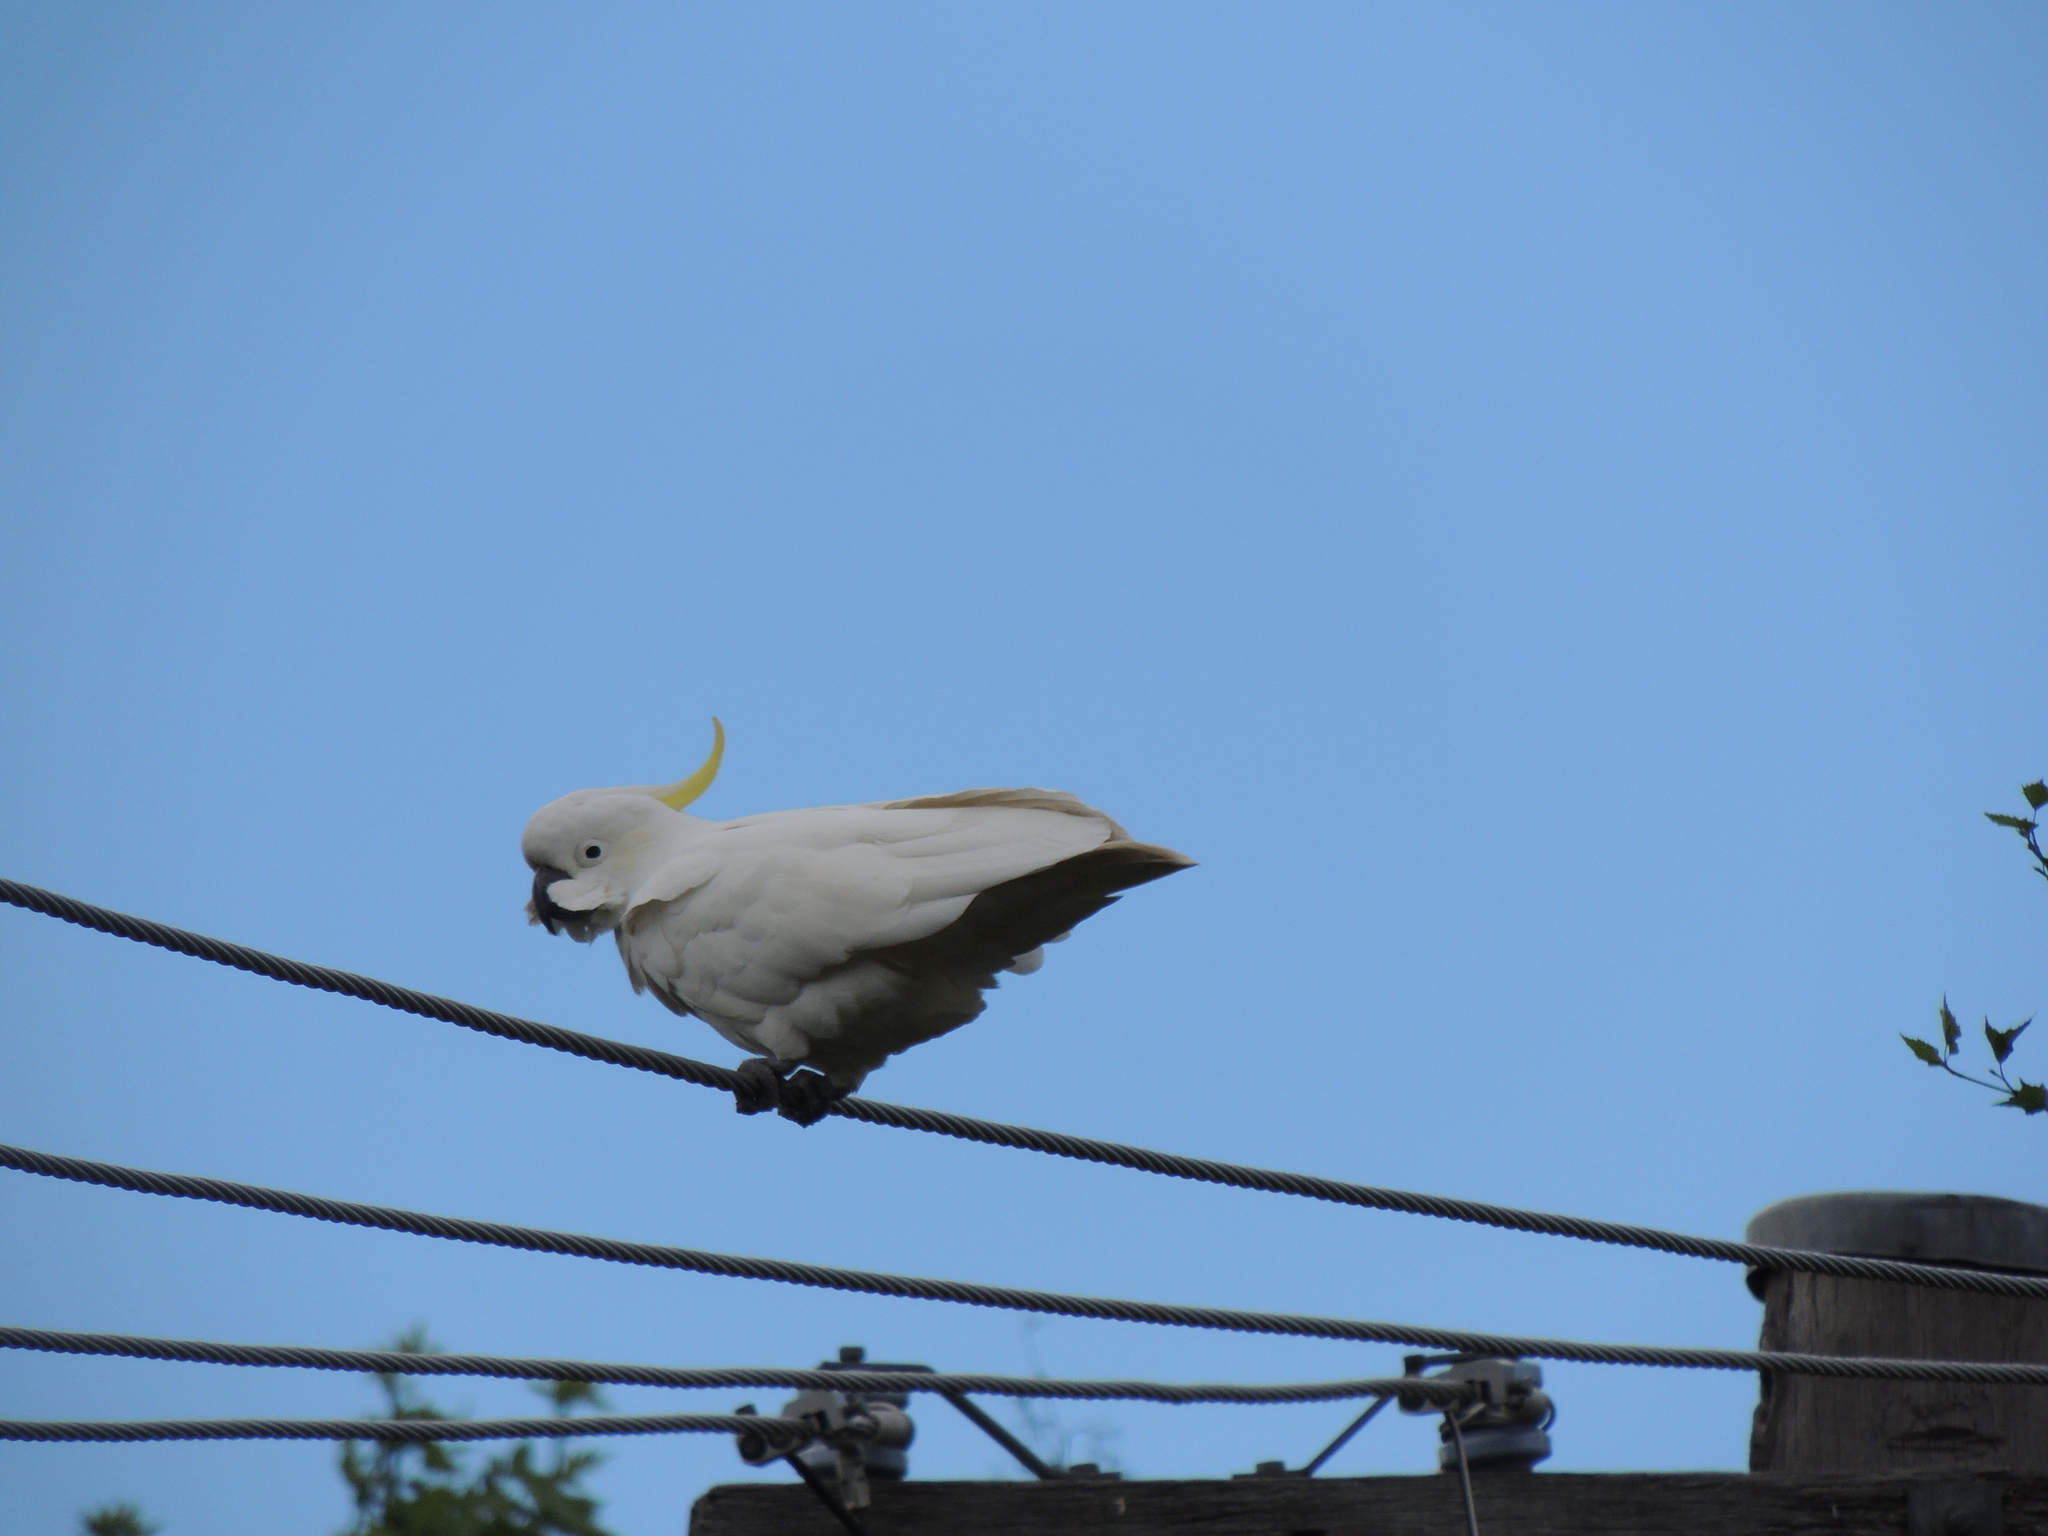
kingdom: Animalia
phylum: Chordata
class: Aves
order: Psittaciformes
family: Psittacidae
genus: Cacatua
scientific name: Cacatua galerita
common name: Sulphur-crested cockatoo
